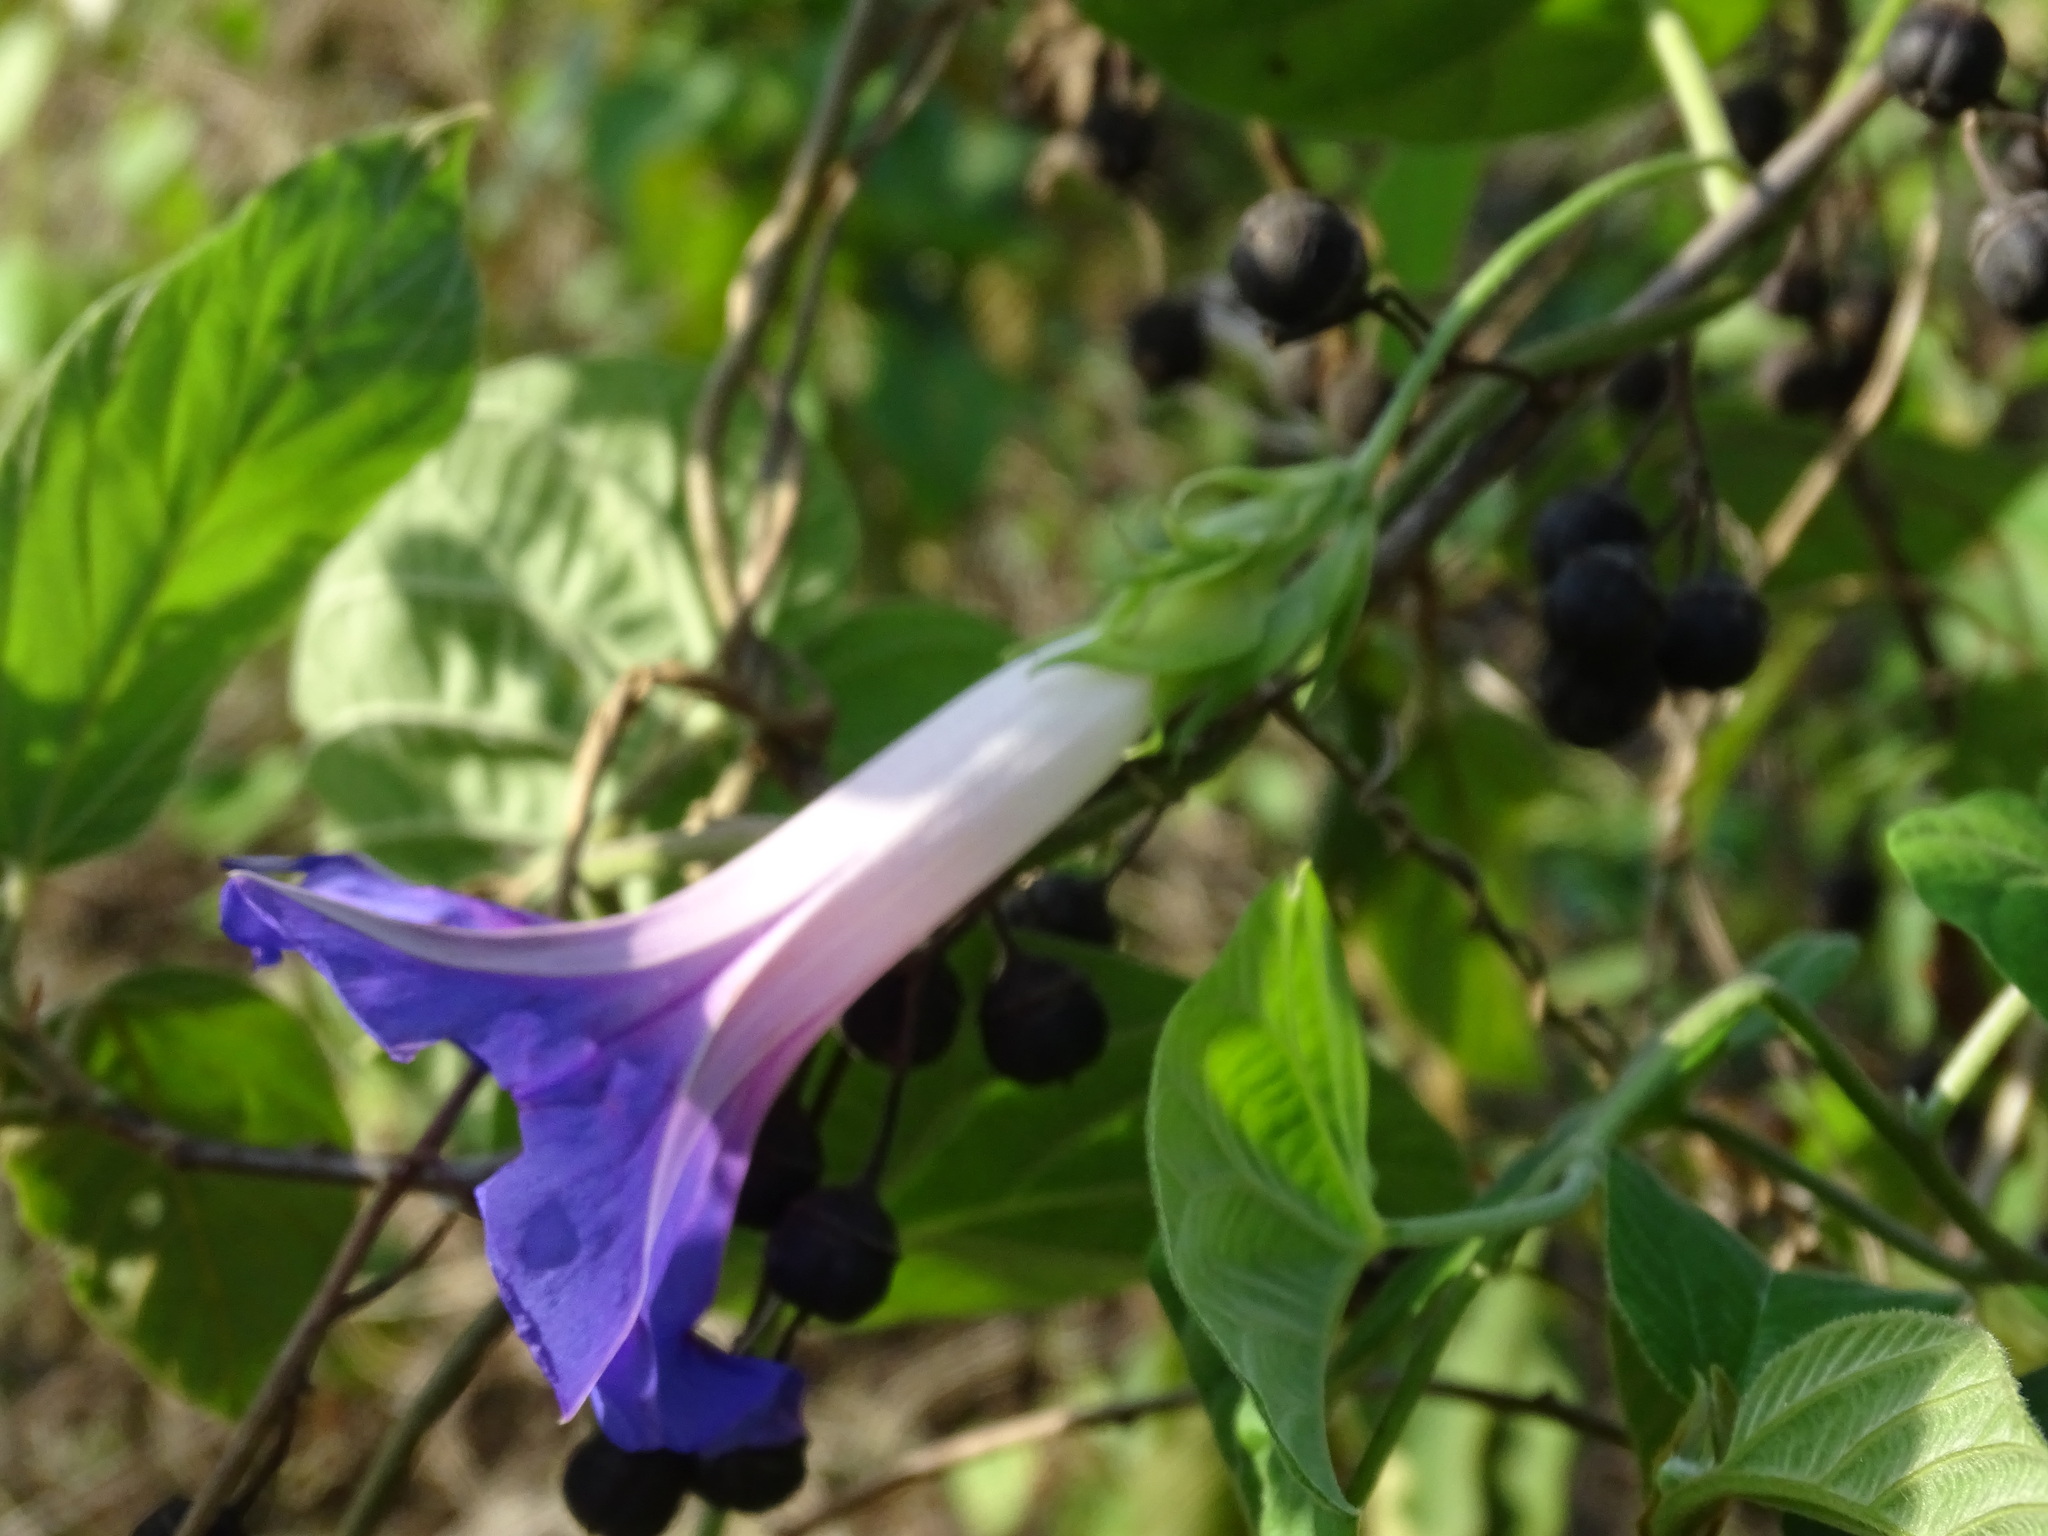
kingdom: Plantae
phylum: Tracheophyta
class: Magnoliopsida
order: Solanales
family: Convolvulaceae
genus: Ipomoea
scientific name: Ipomoea indica
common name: Blue dawnflower
